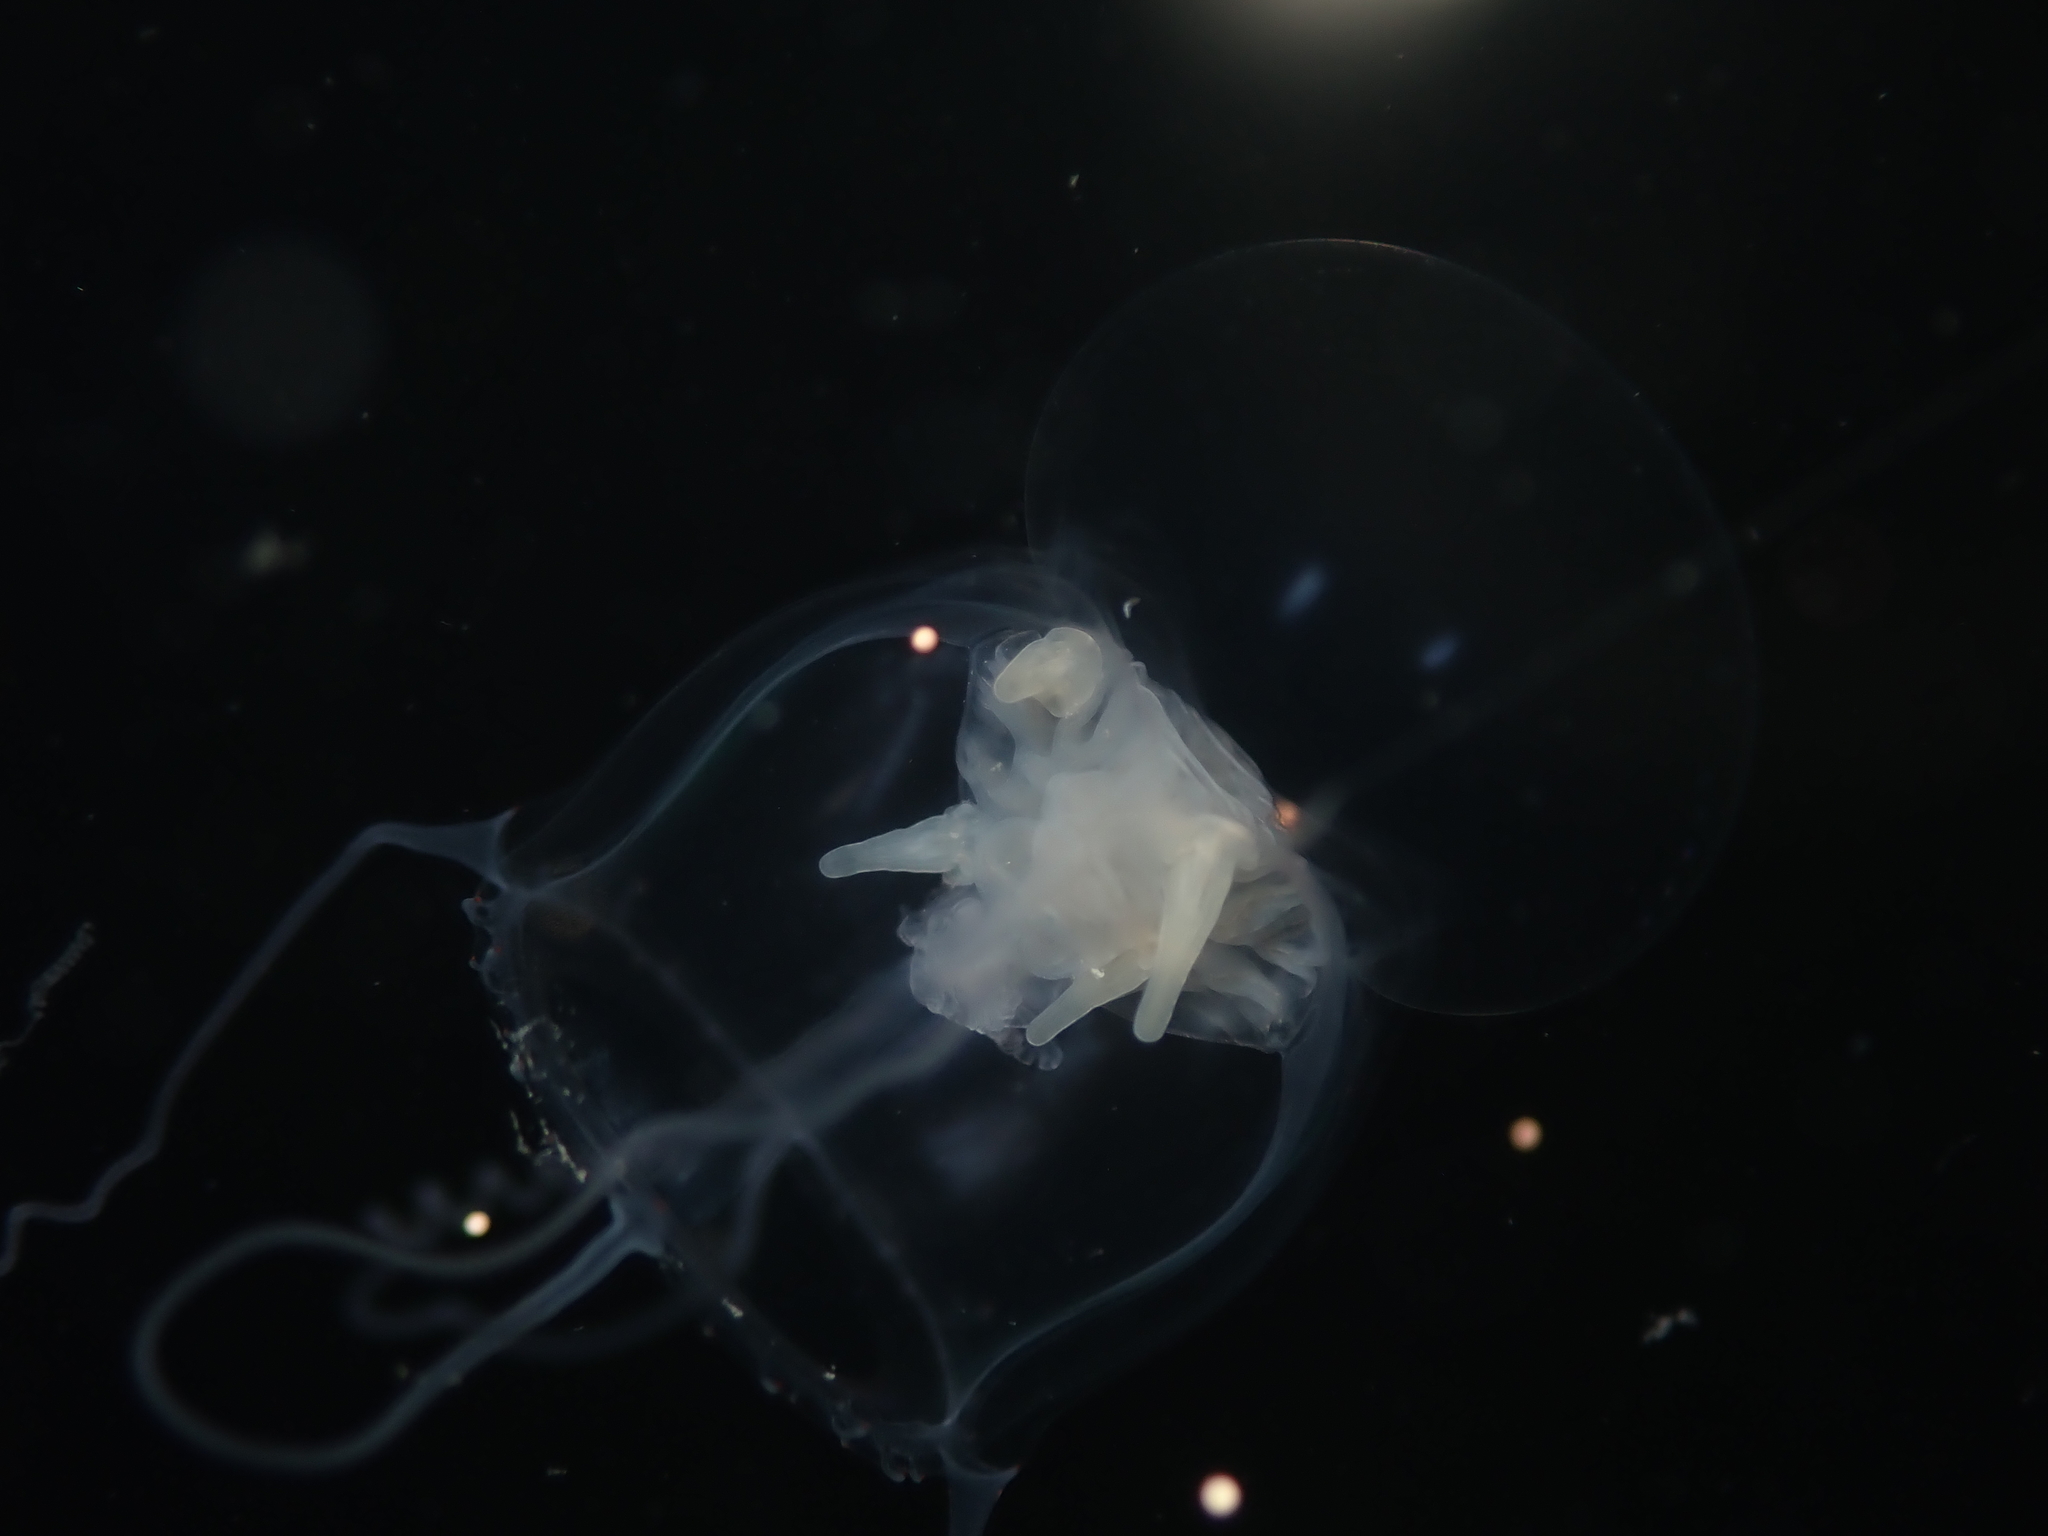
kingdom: Animalia
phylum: Cnidaria
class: Anthozoa
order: Actiniaria
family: Peachiidae
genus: Peachia
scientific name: Peachia neozealandica
